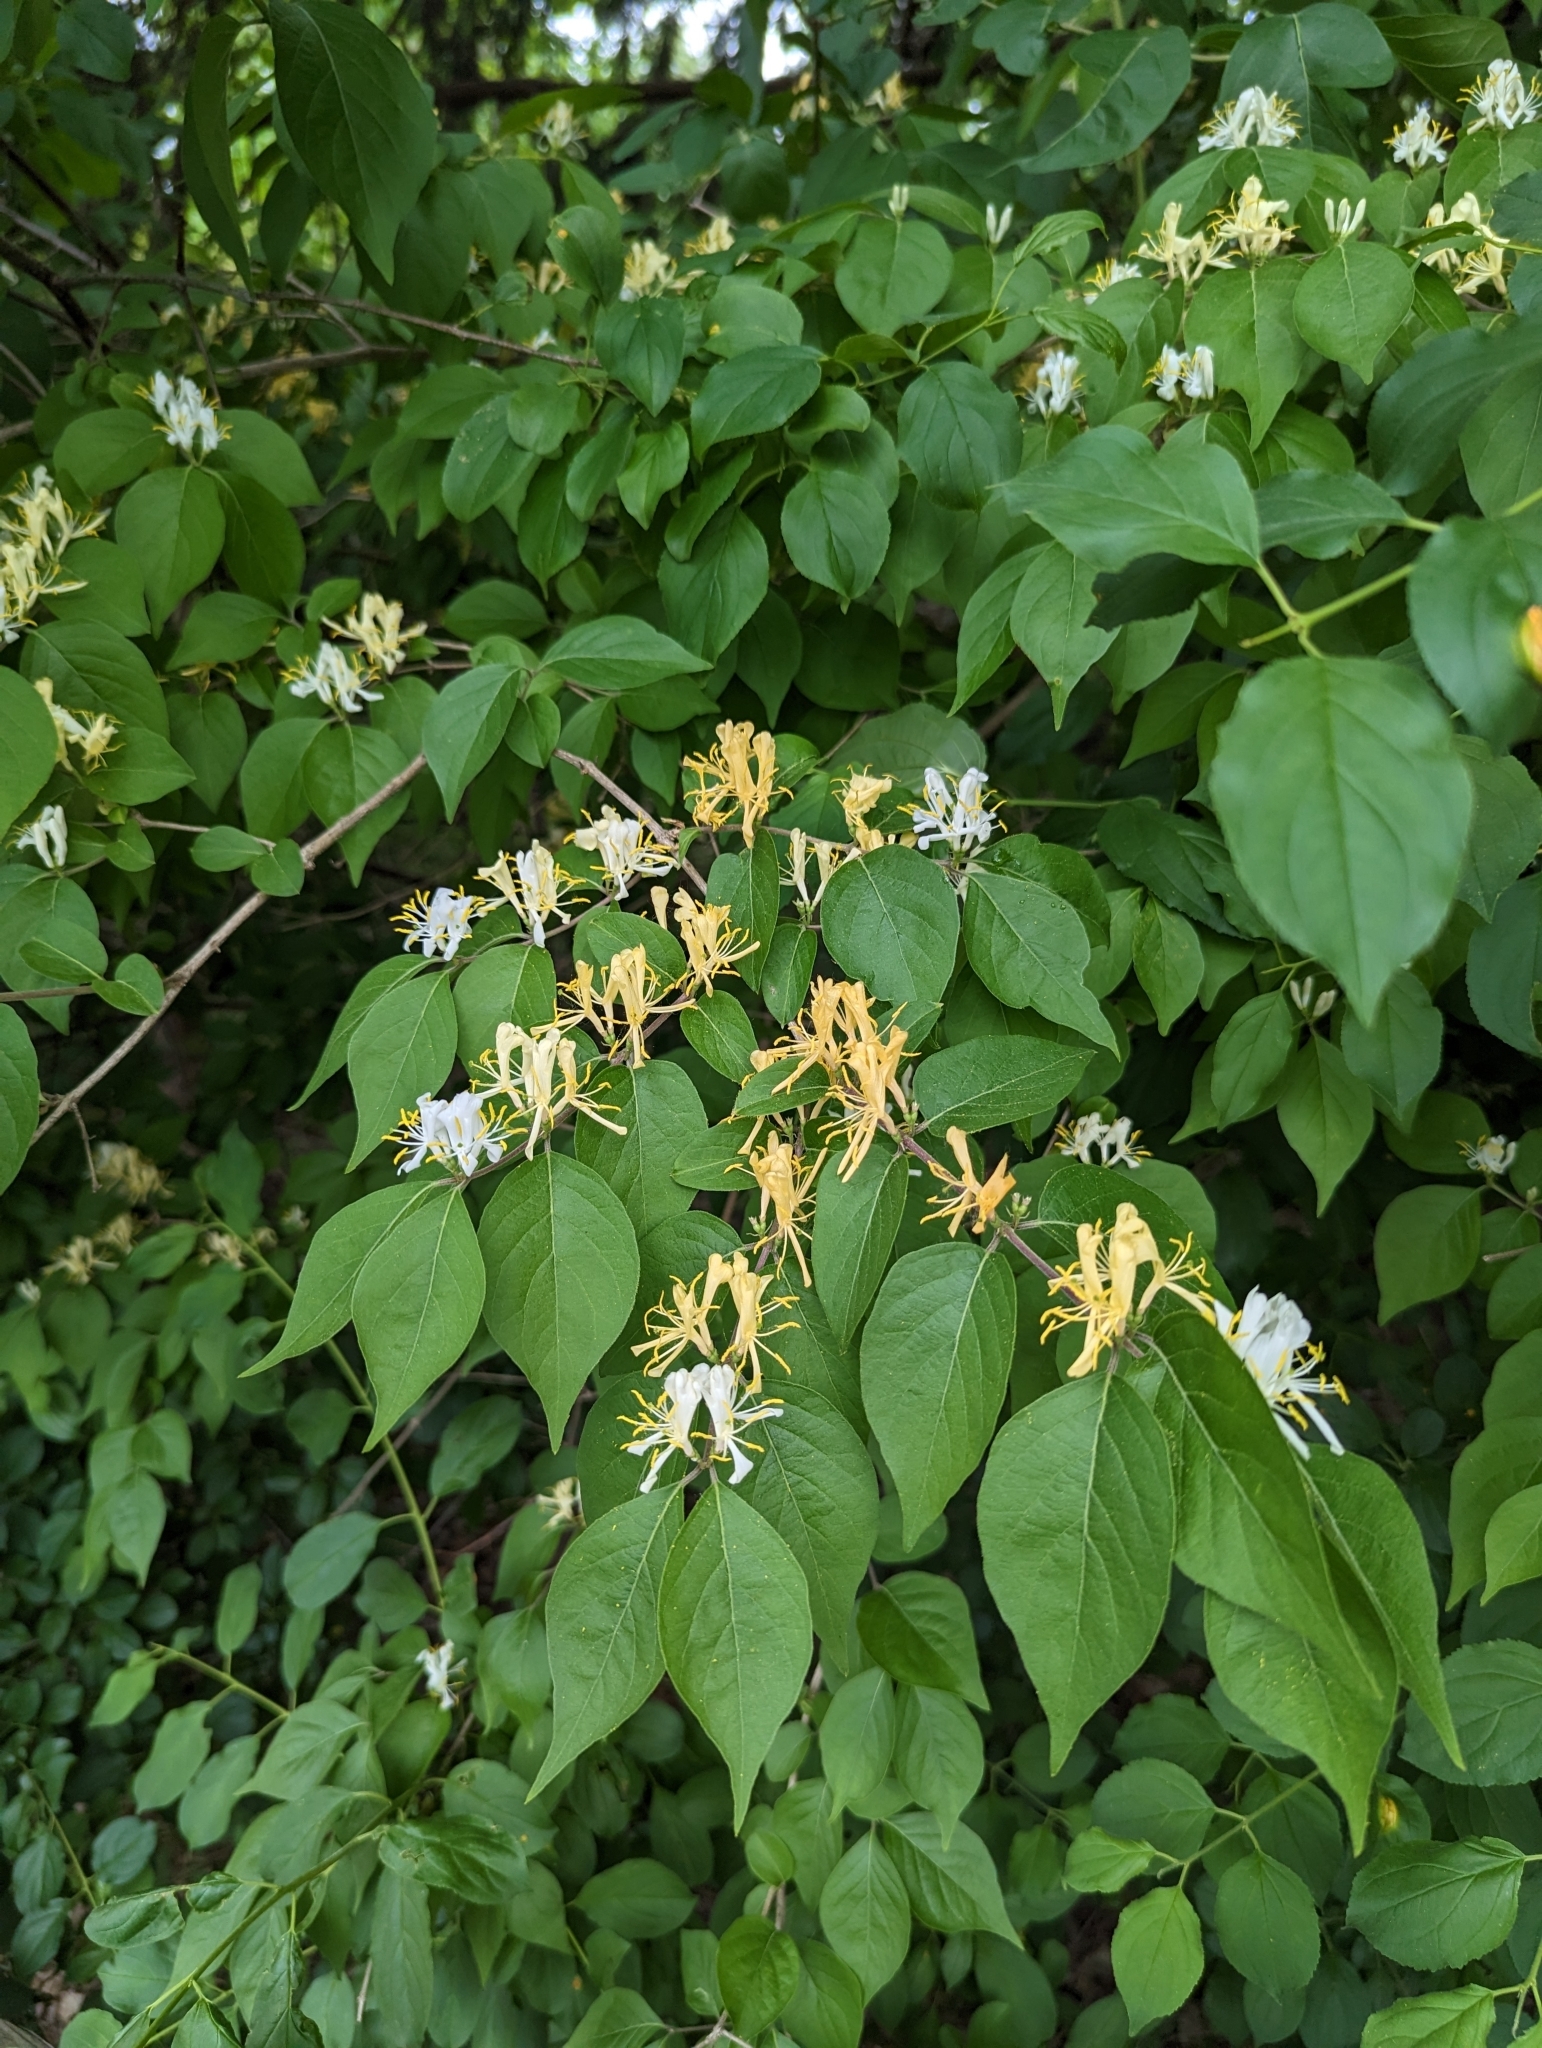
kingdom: Plantae
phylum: Tracheophyta
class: Magnoliopsida
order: Dipsacales
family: Caprifoliaceae
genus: Lonicera
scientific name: Lonicera maackii
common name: Amur honeysuckle
